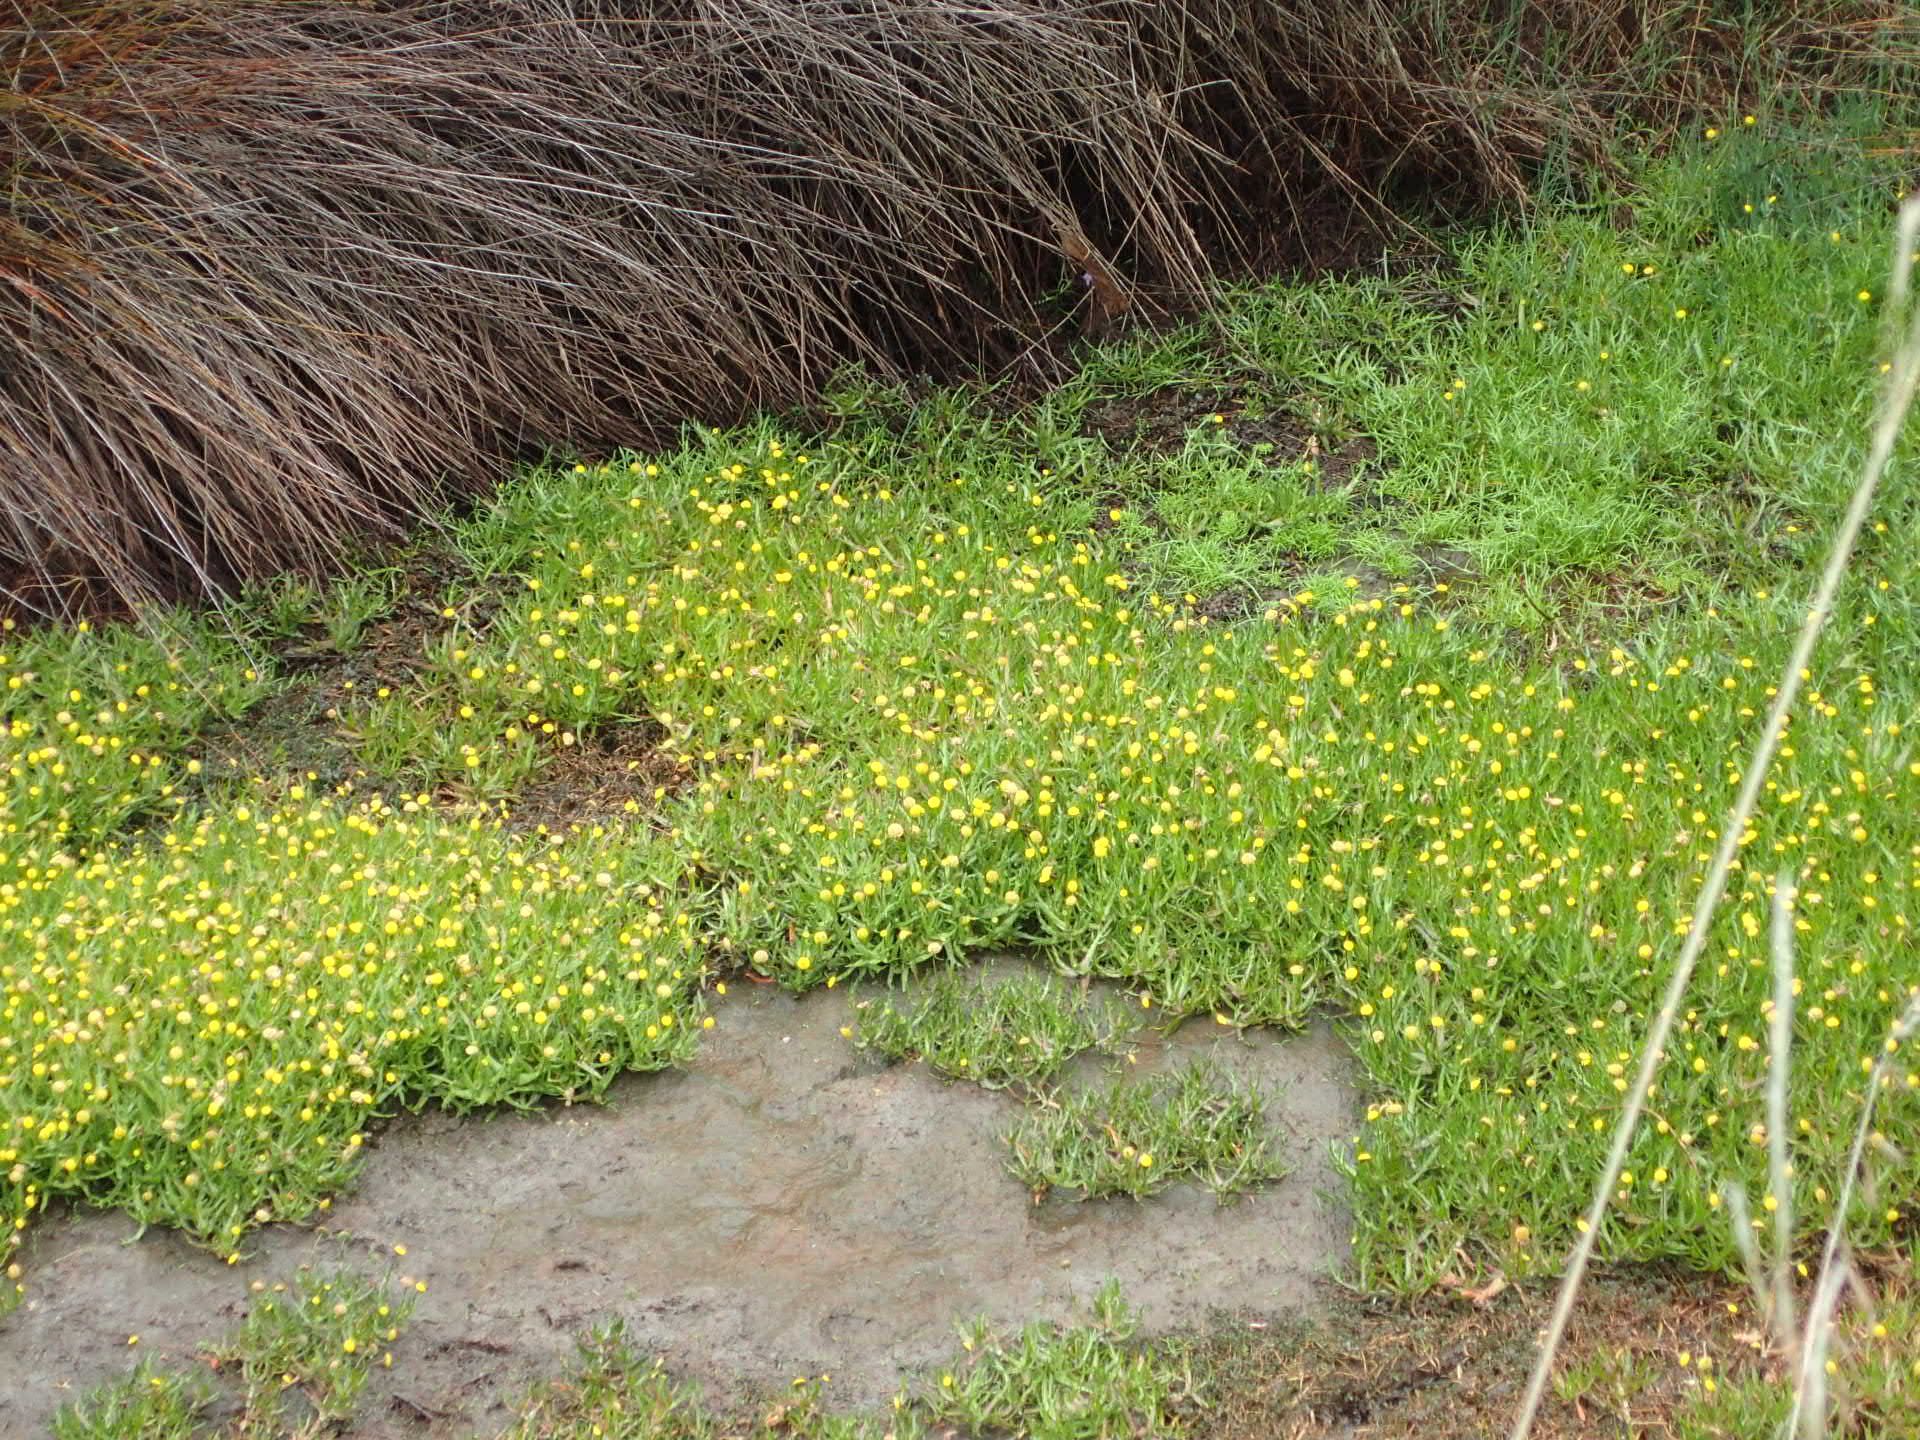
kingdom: Plantae
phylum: Tracheophyta
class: Magnoliopsida
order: Asterales
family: Asteraceae
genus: Cotula
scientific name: Cotula coronopifolia
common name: Buttonweed
